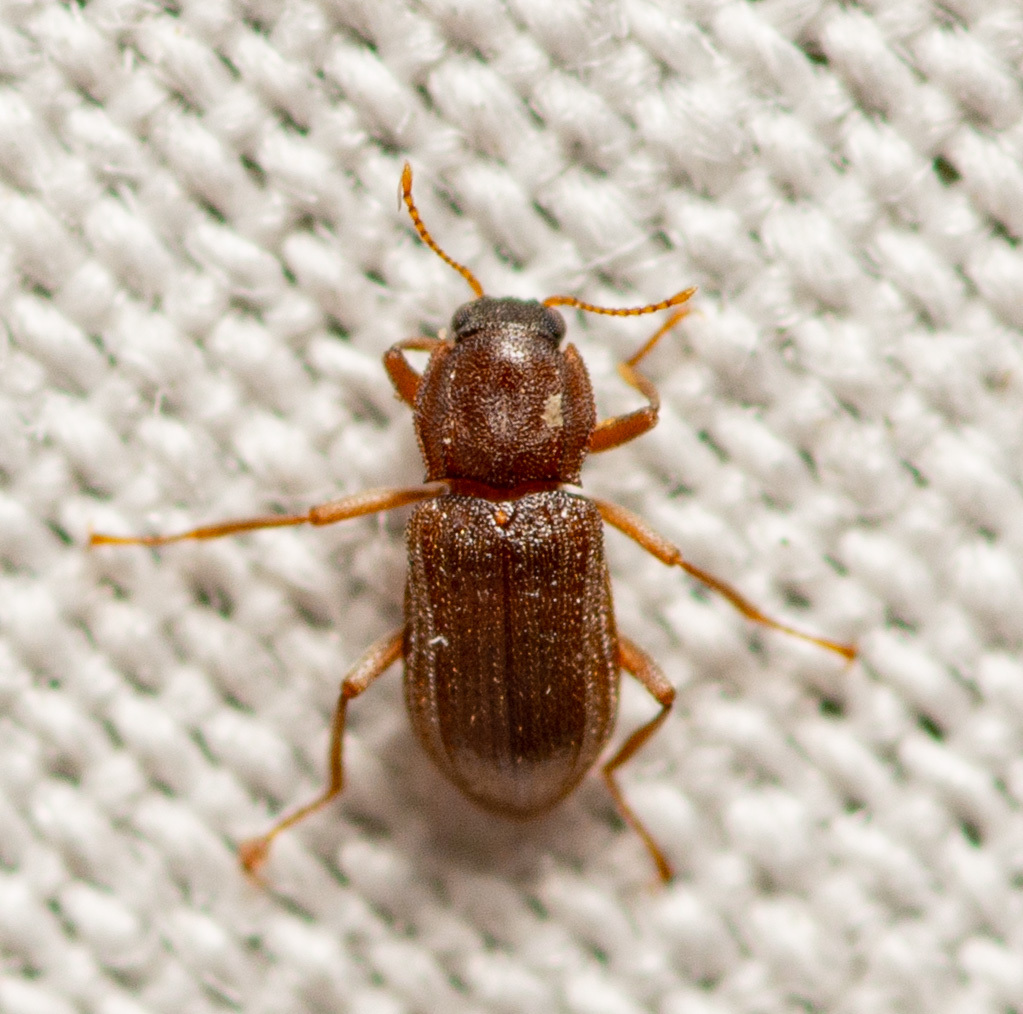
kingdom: Animalia
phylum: Arthropoda
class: Insecta
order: Coleoptera
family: Elmidae
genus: Hexacylloepus
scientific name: Hexacylloepus ferrugineus
